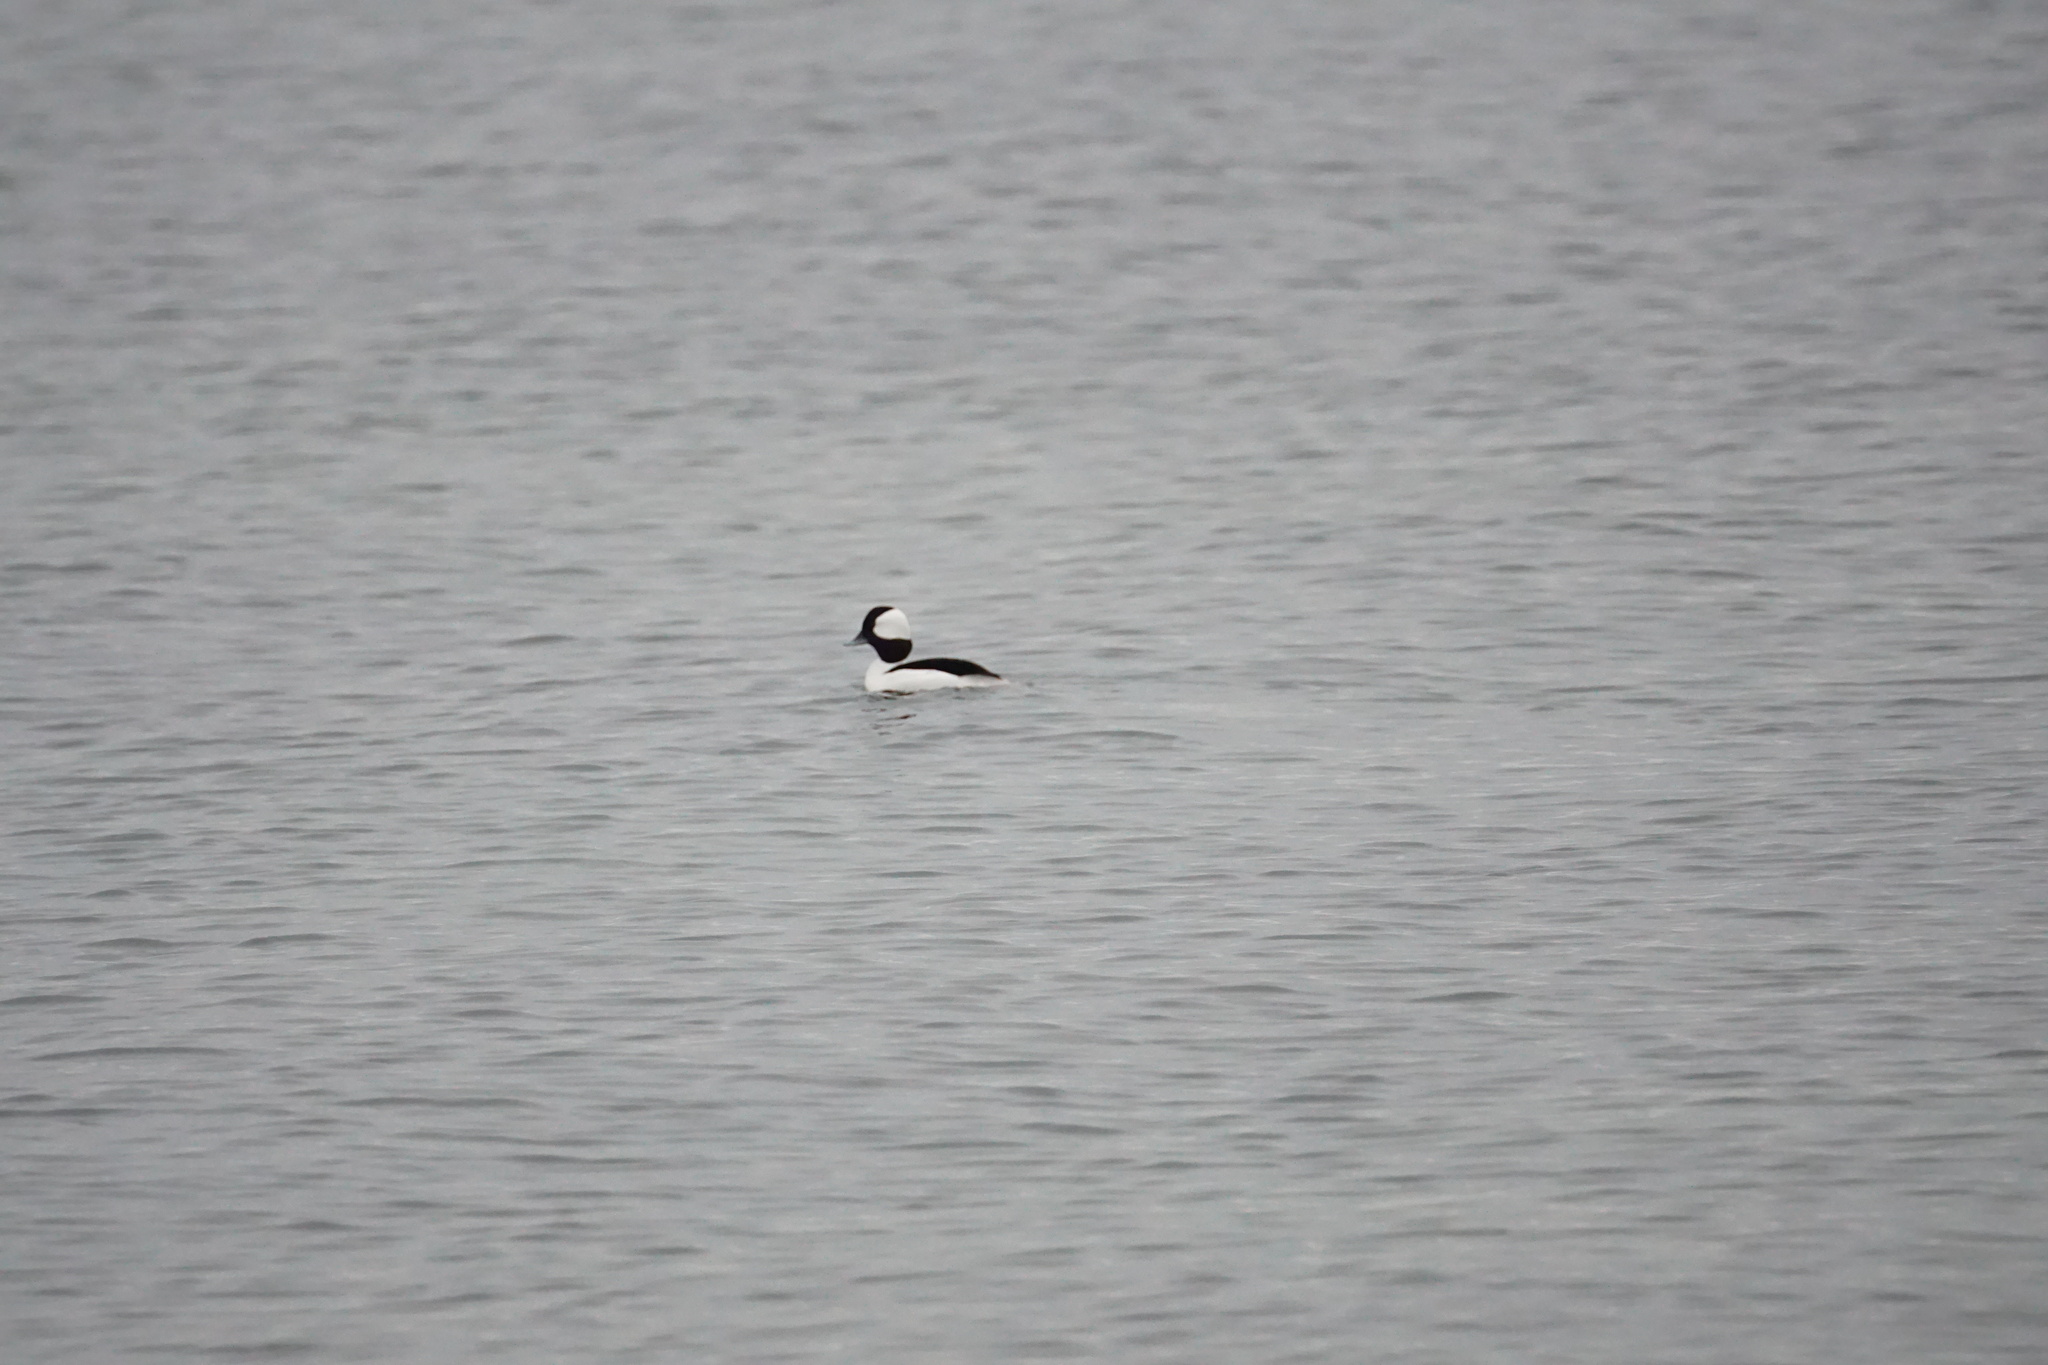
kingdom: Animalia
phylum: Chordata
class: Aves
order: Anseriformes
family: Anatidae
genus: Bucephala
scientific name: Bucephala albeola
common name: Bufflehead
